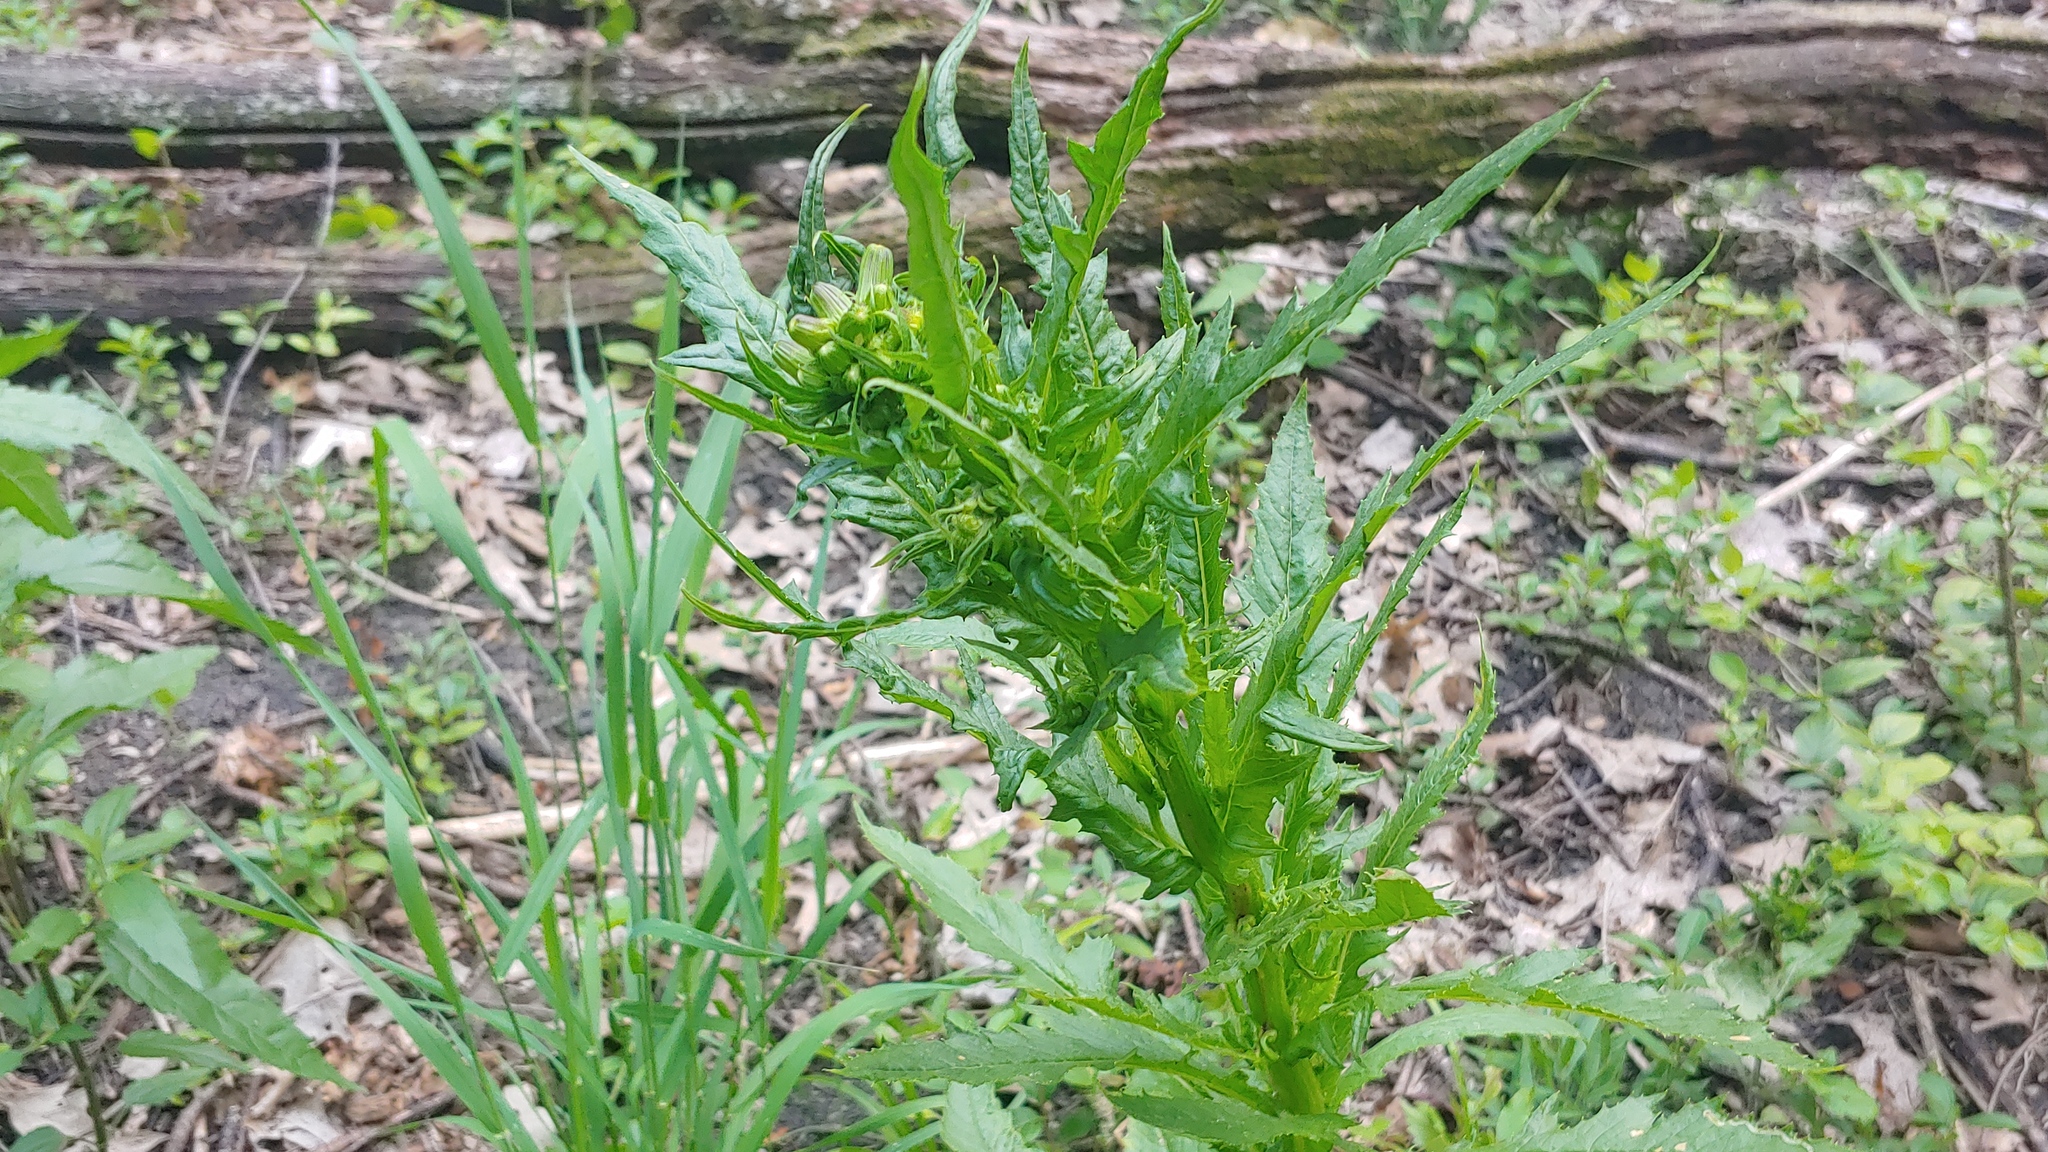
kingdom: Plantae
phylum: Tracheophyta
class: Magnoliopsida
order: Asterales
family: Asteraceae
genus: Erechtites
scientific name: Erechtites hieraciifolius
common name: American burnweed
